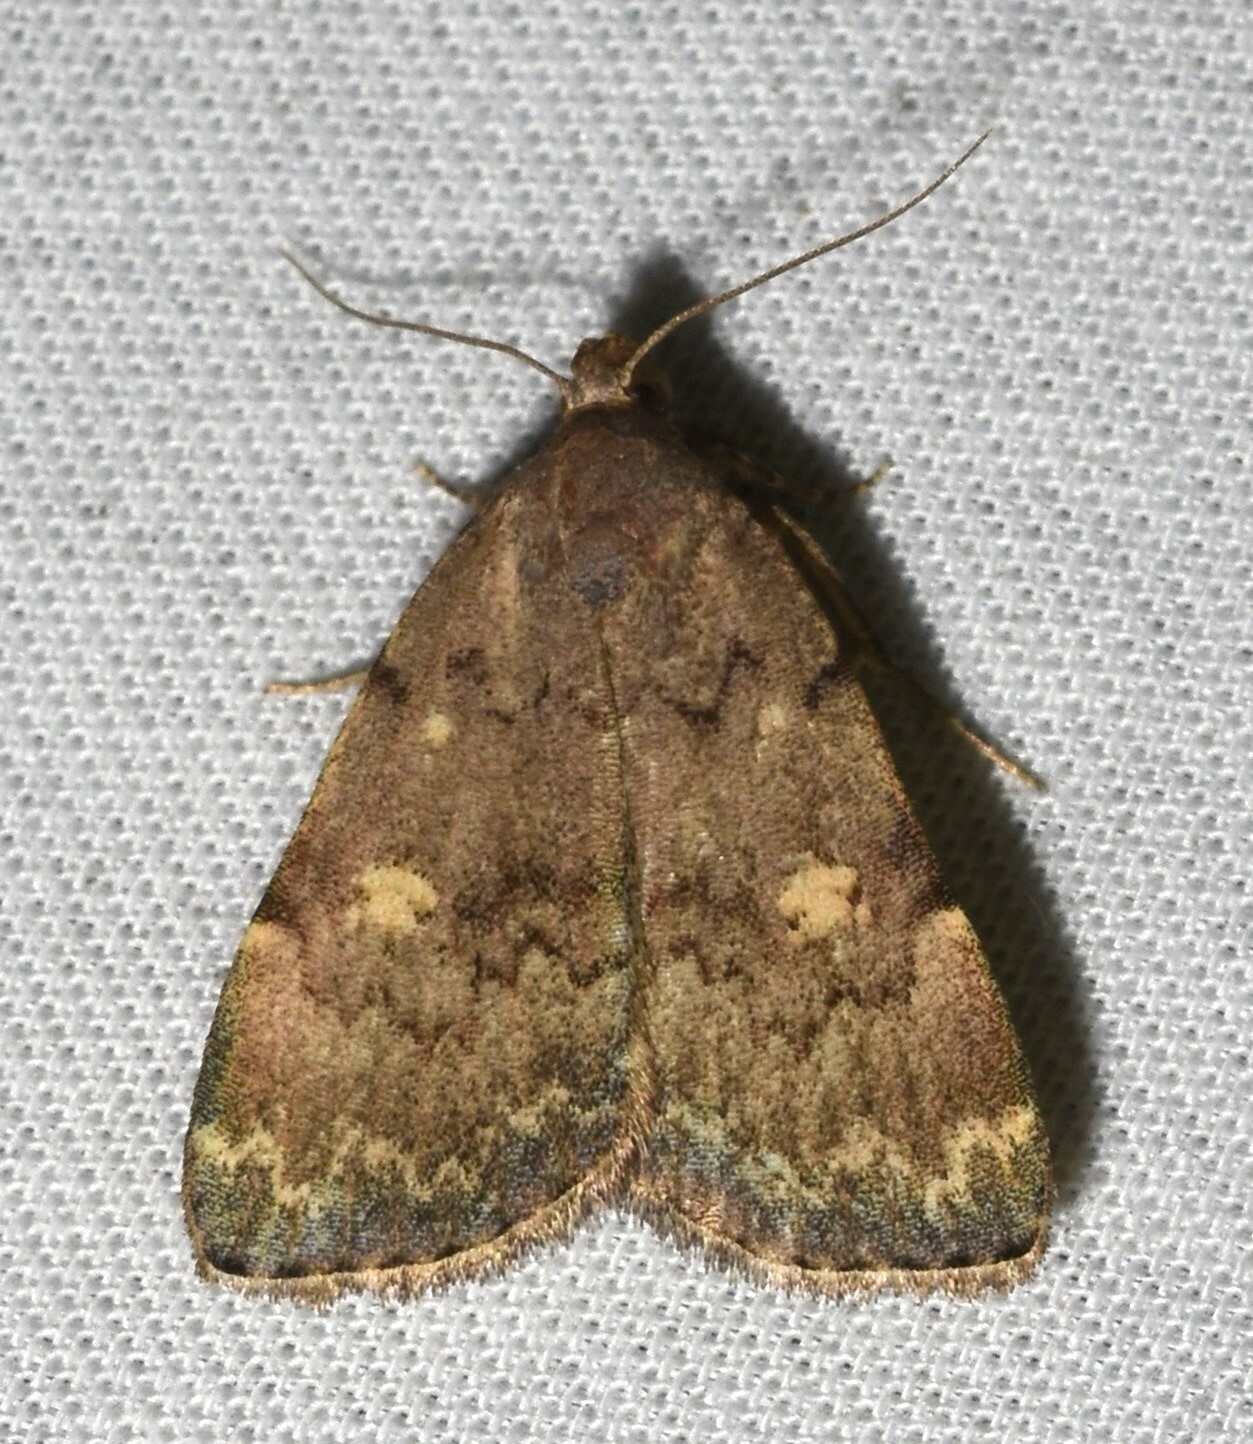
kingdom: Animalia
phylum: Arthropoda
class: Insecta
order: Lepidoptera
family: Erebidae
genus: Idia
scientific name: Idia aemula
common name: Common idia moth
